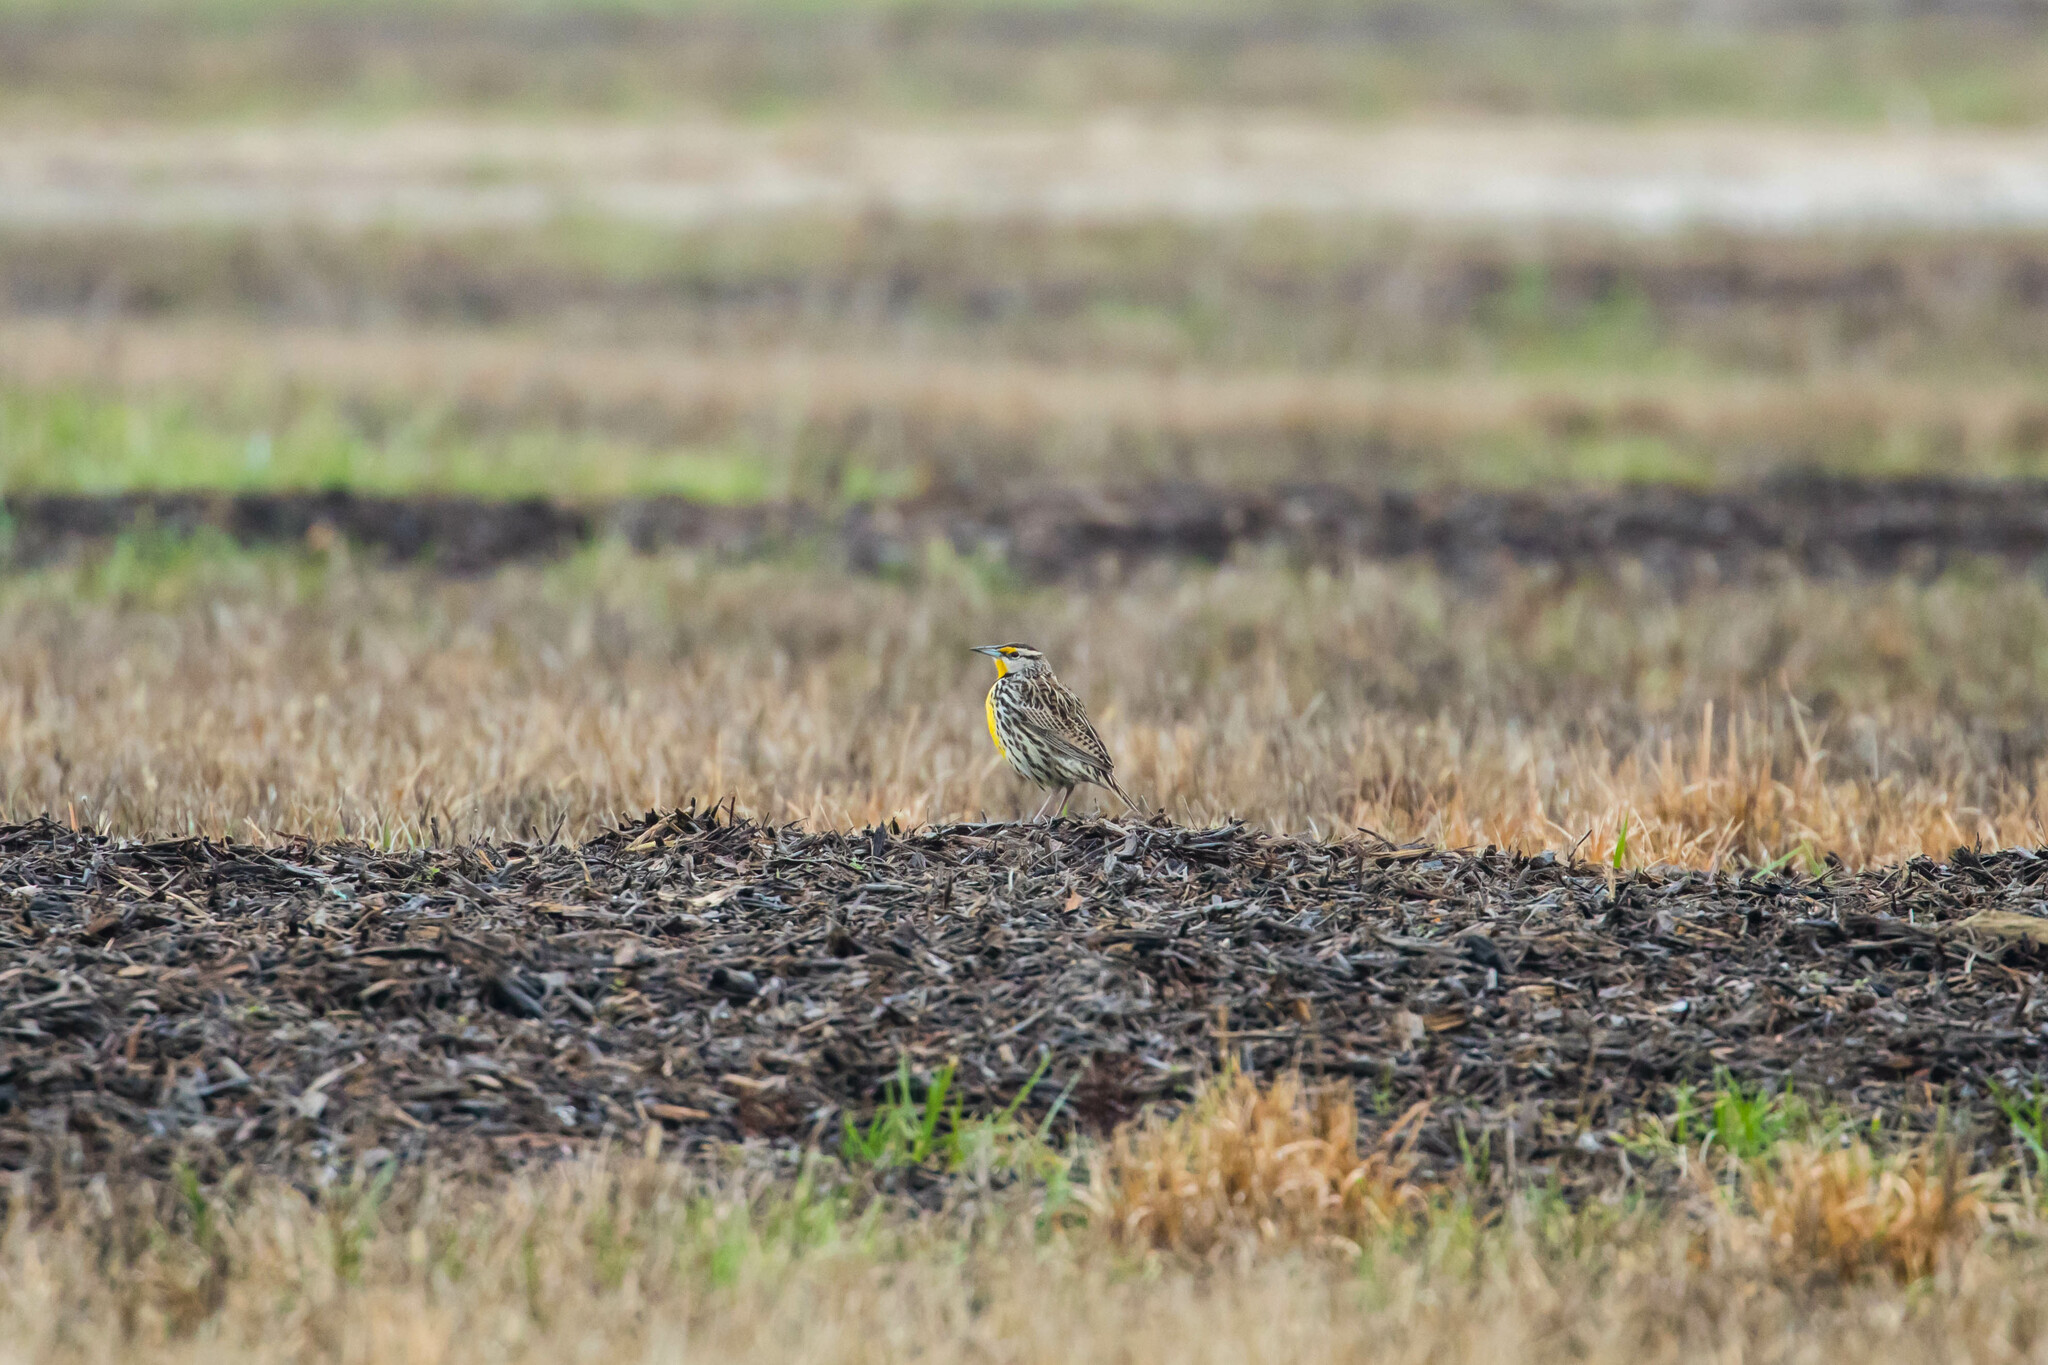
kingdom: Animalia
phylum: Chordata
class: Aves
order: Passeriformes
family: Icteridae
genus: Sturnella
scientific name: Sturnella magna
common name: Eastern meadowlark
